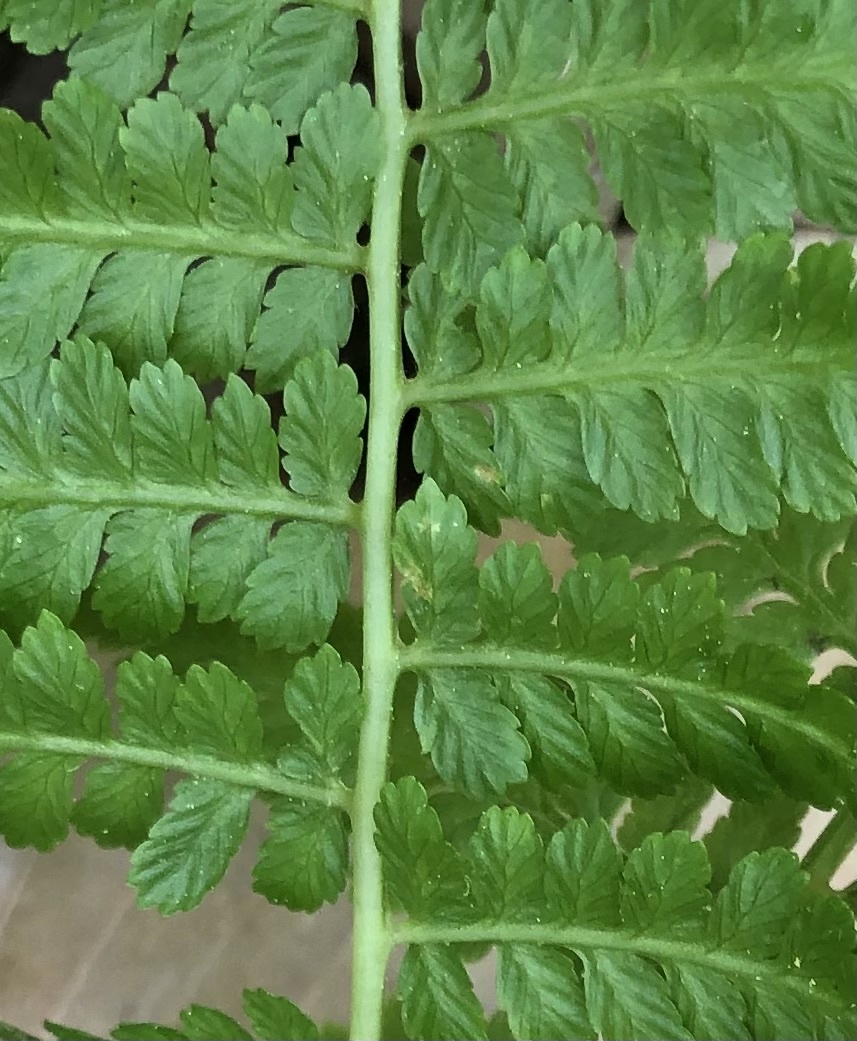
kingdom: Plantae
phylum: Tracheophyta
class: Polypodiopsida
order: Polypodiales
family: Athyriaceae
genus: Athyrium
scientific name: Athyrium asplenioides
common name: Southern lady fern
